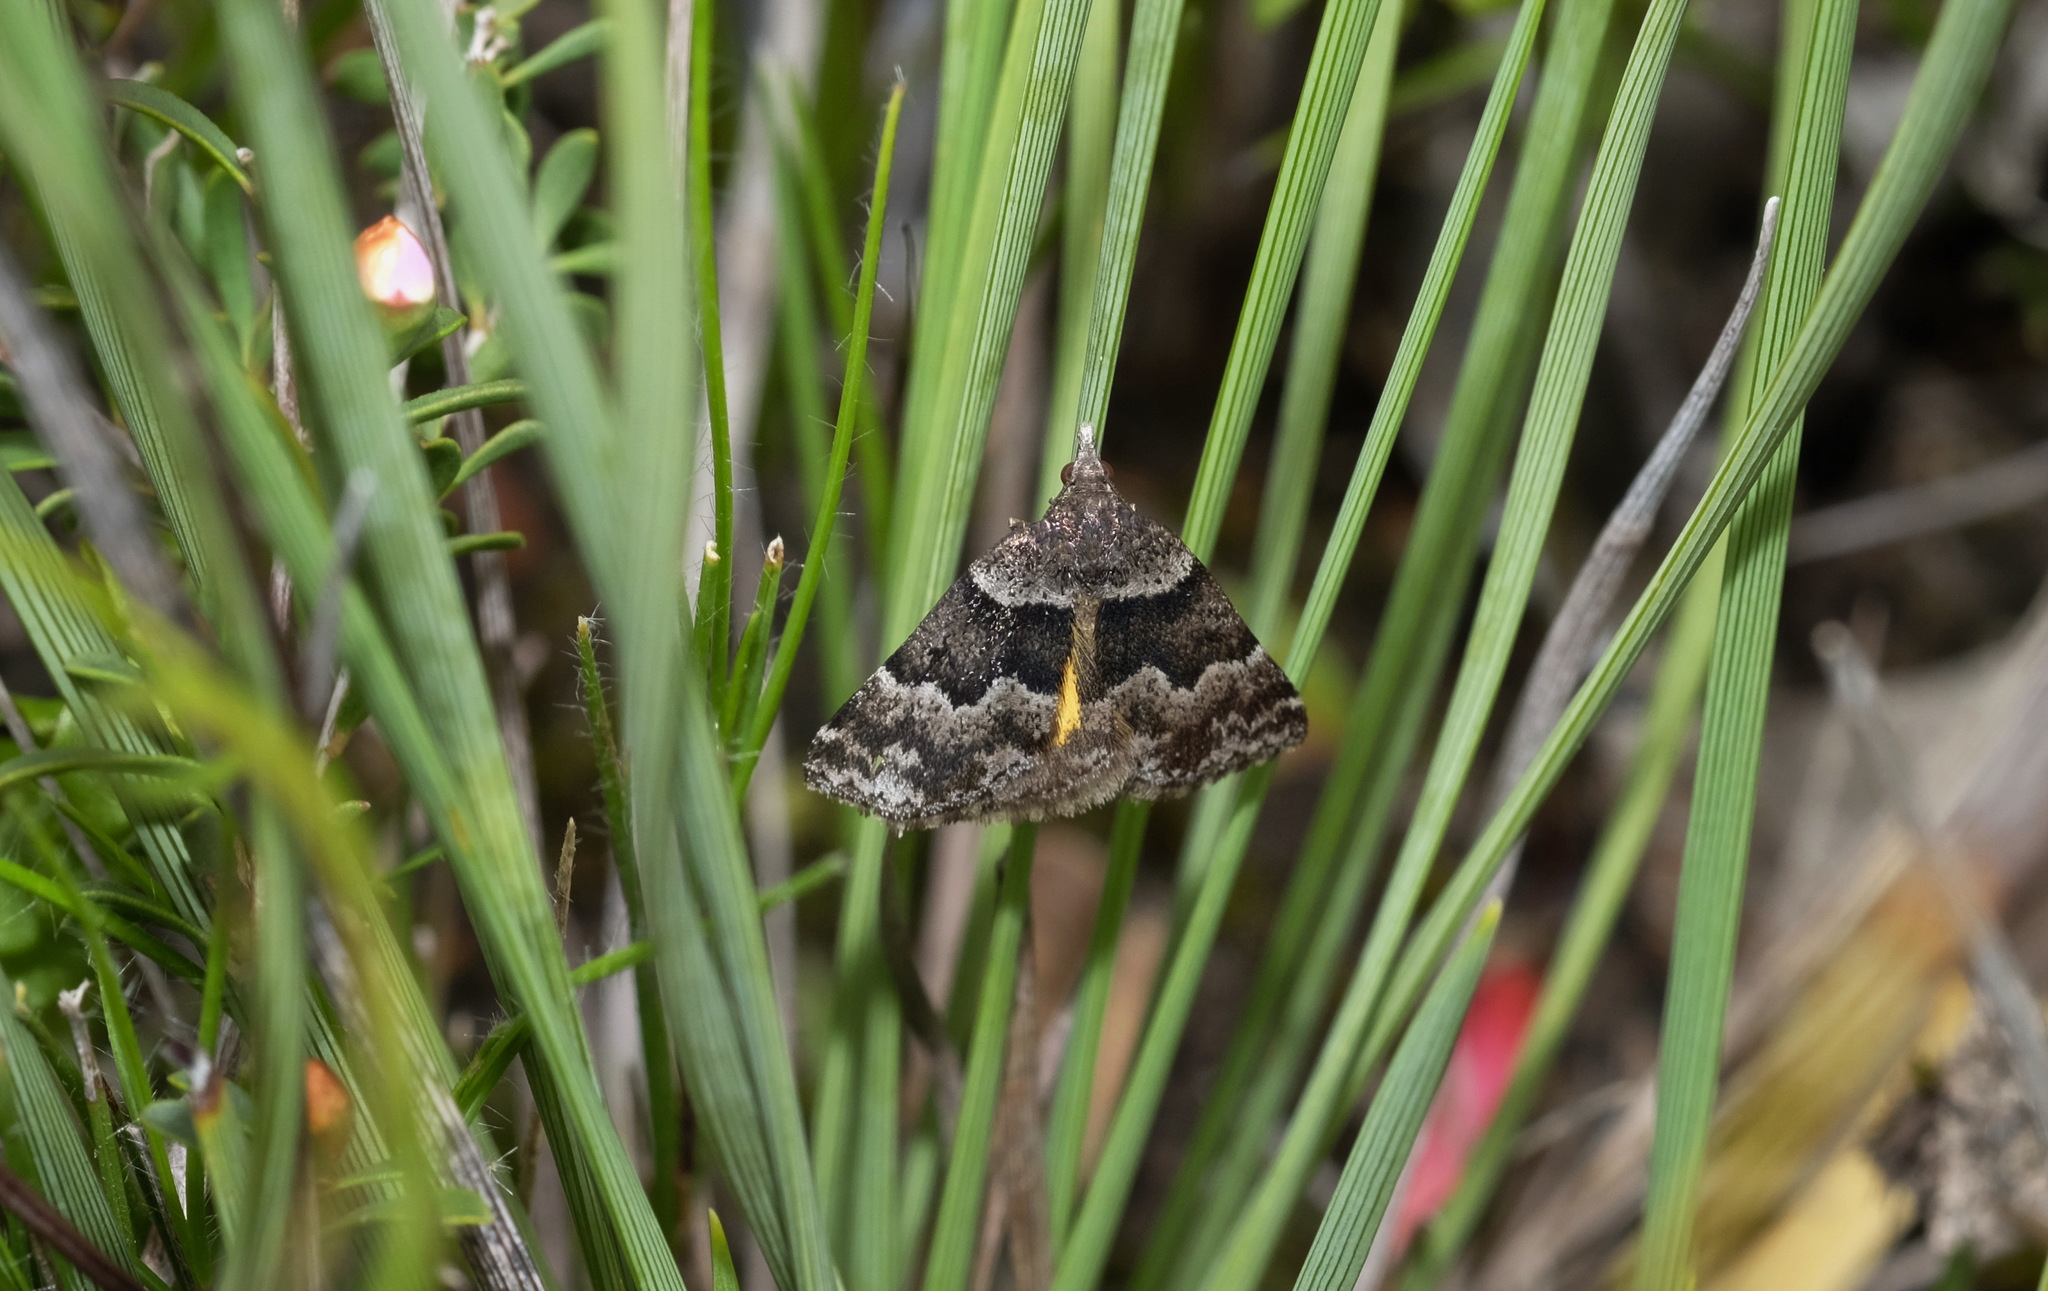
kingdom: Animalia
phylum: Arthropoda
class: Insecta
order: Lepidoptera
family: Geometridae
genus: Dichromodes
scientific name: Dichromodes ainaria
